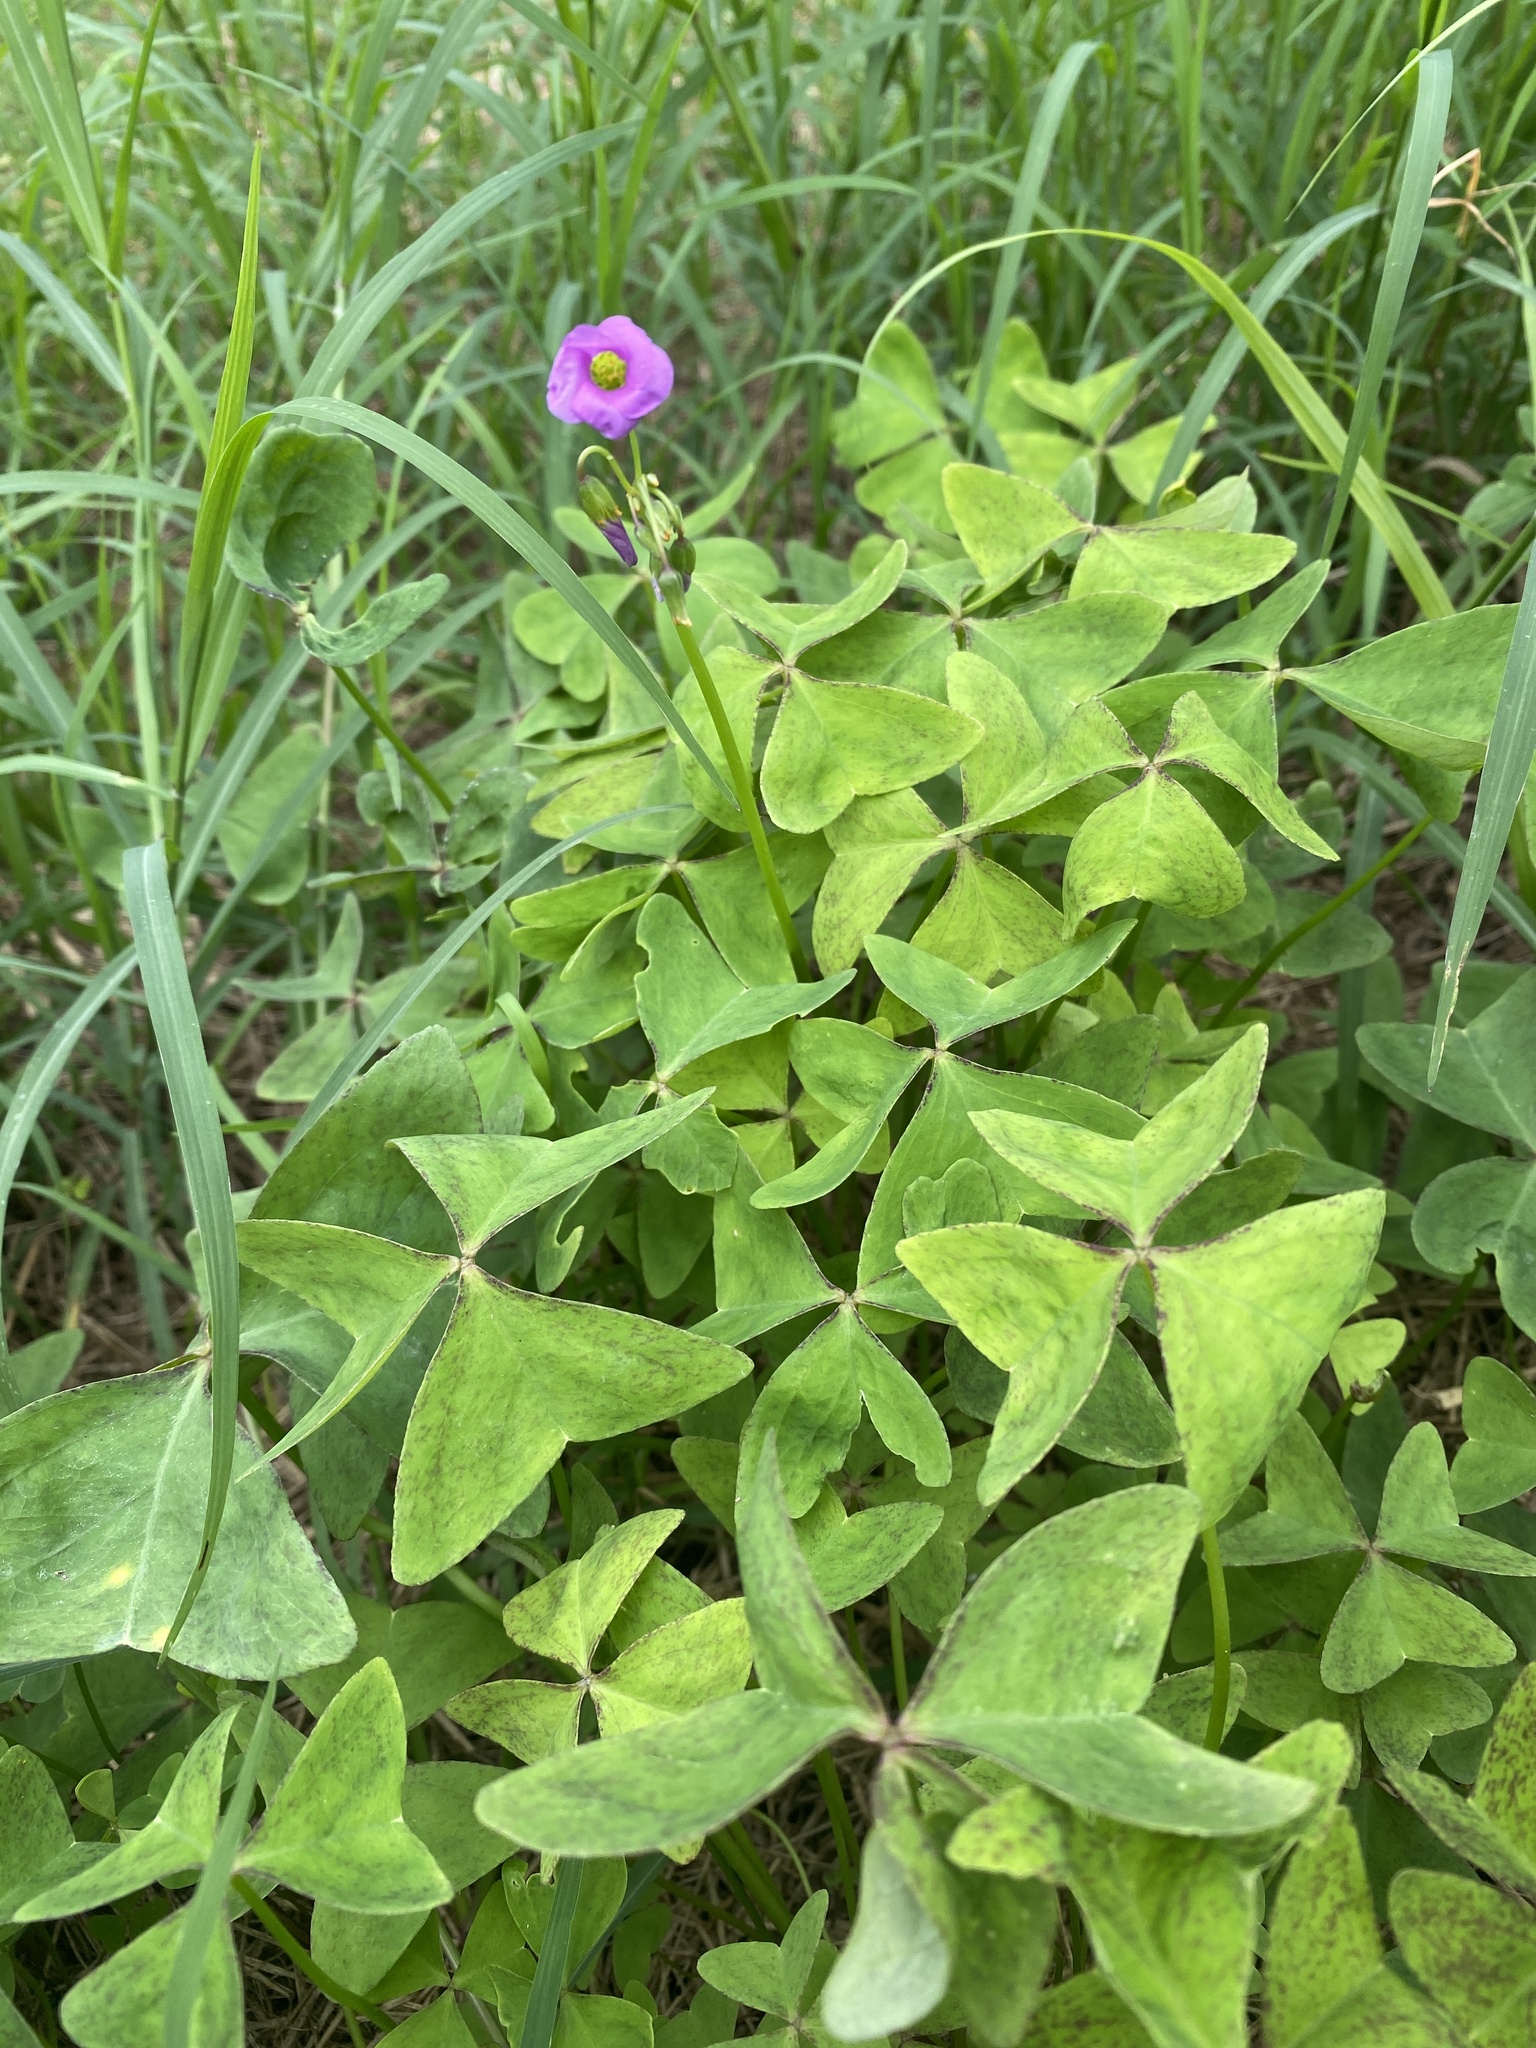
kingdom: Plantae
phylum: Tracheophyta
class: Magnoliopsida
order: Oxalidales
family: Oxalidaceae
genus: Oxalis
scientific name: Oxalis latifolia
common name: Garden pink-sorrel
